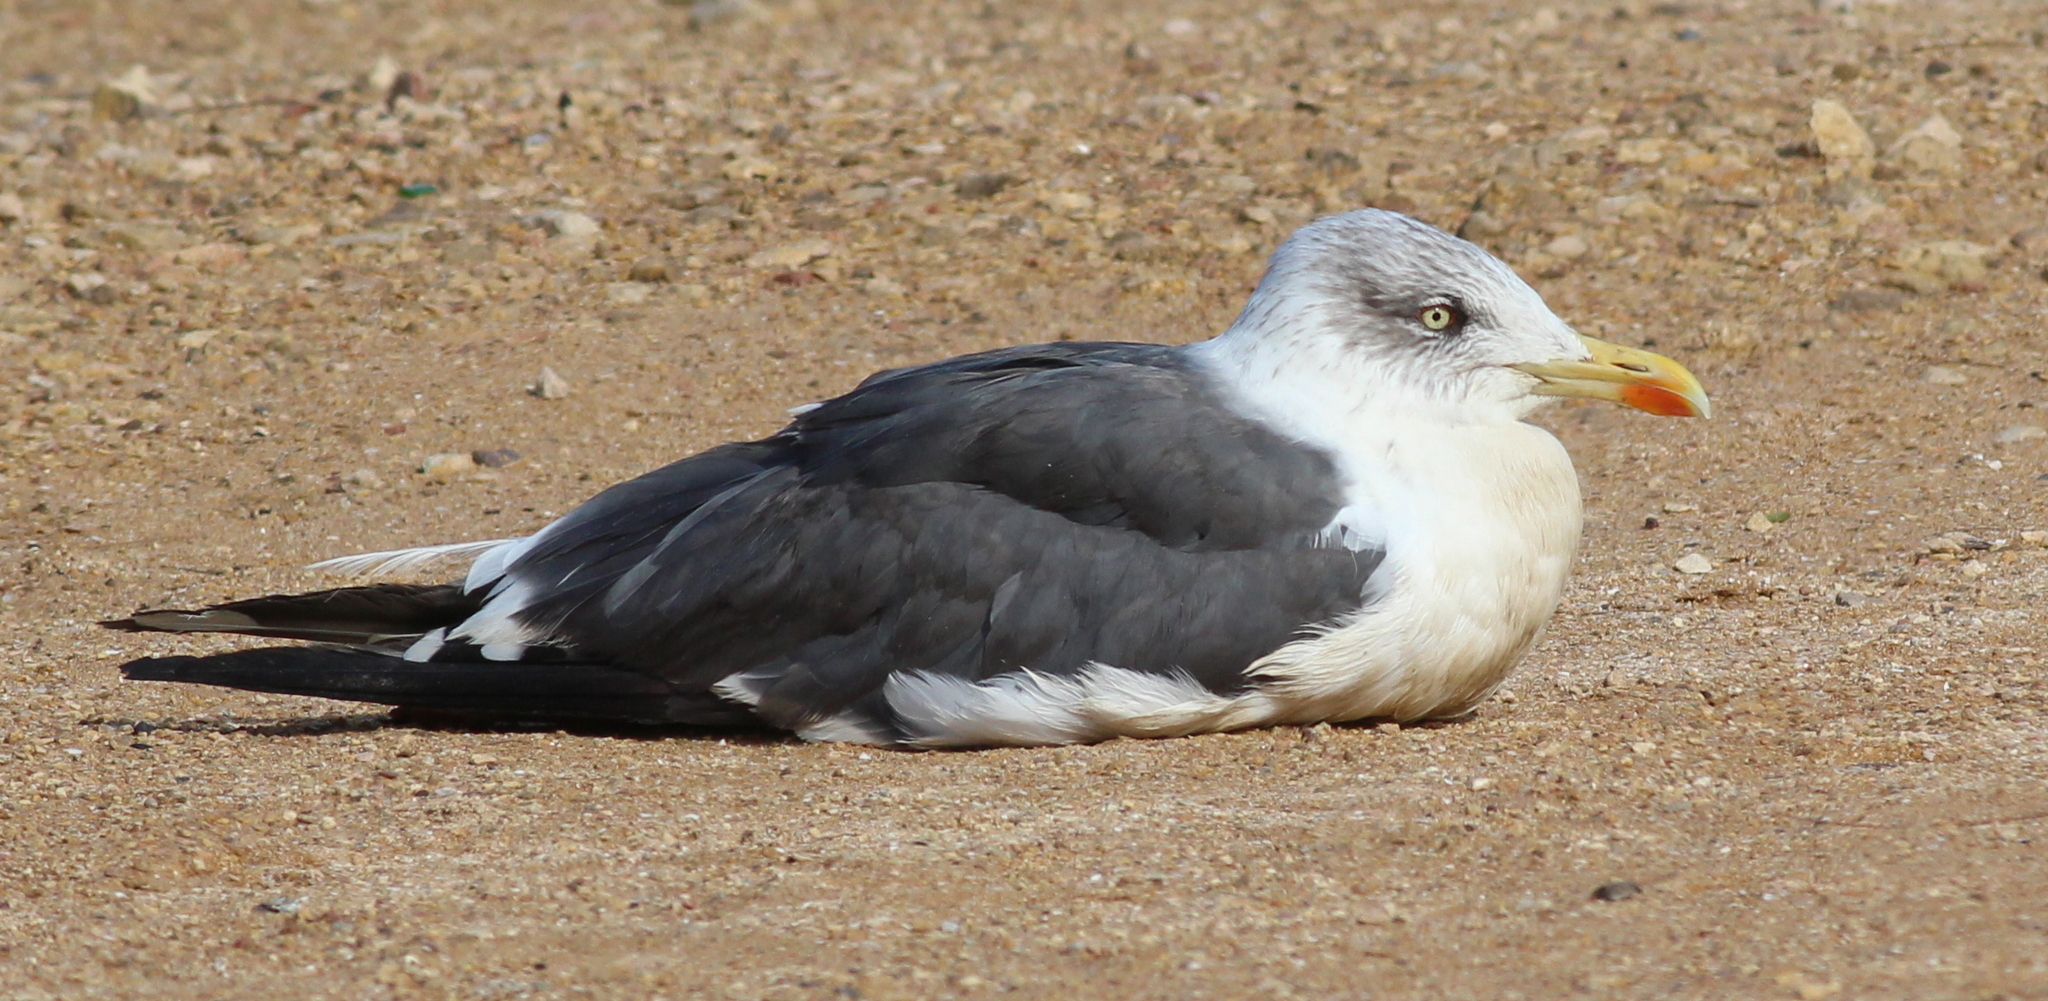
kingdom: Animalia
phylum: Chordata
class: Aves
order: Charadriiformes
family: Laridae
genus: Larus
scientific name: Larus fuscus
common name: Lesser black-backed gull
